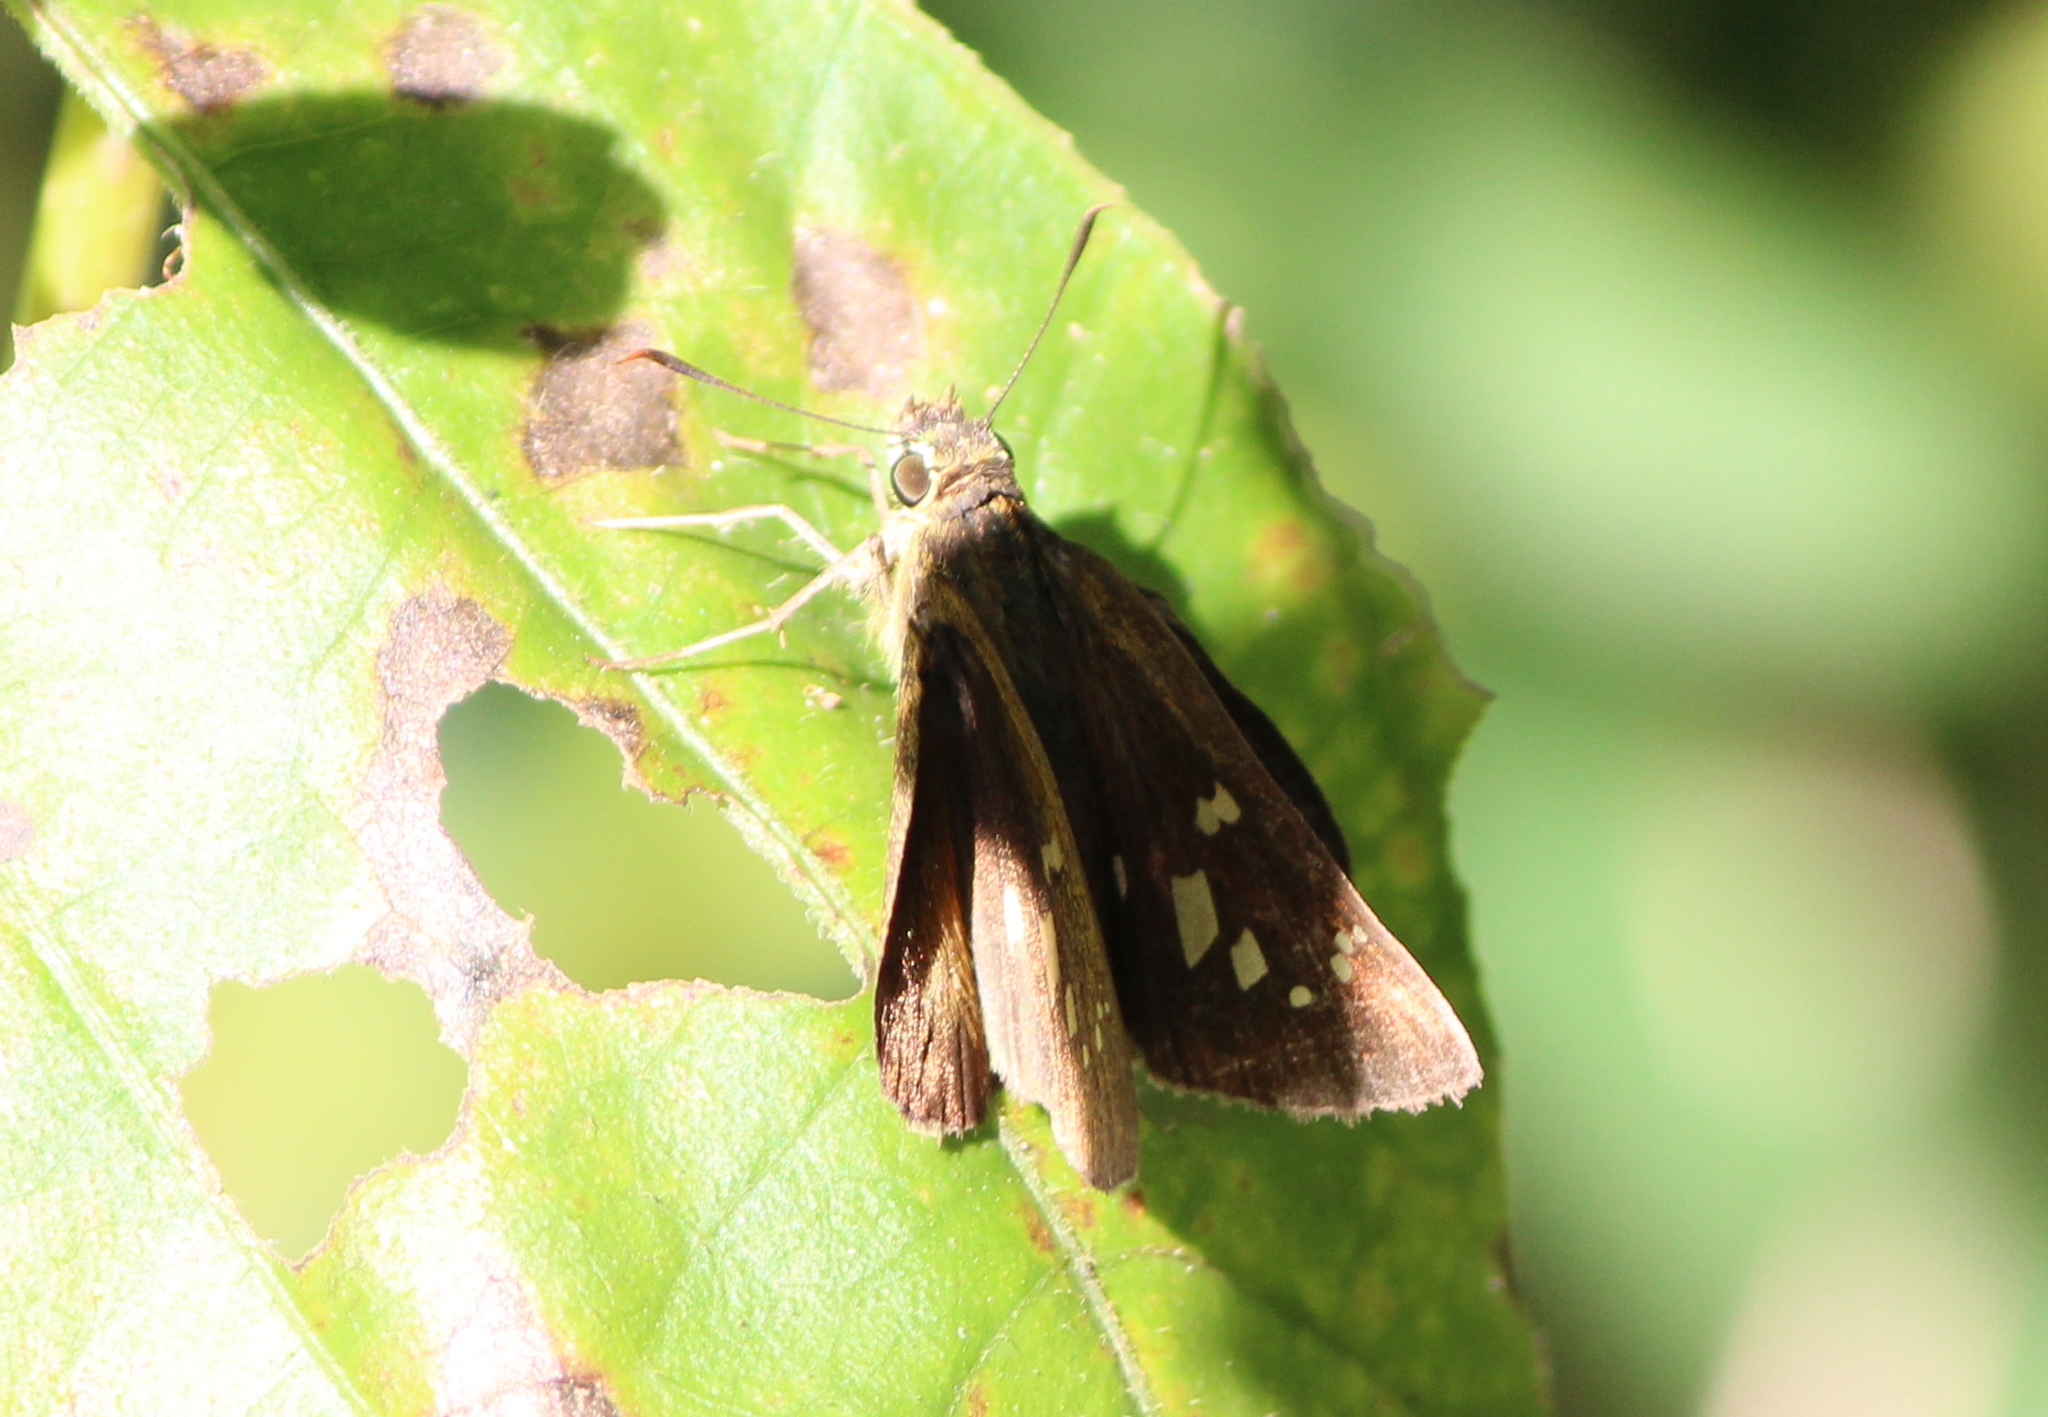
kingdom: Animalia
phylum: Arthropoda
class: Insecta
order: Lepidoptera
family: Hesperiidae
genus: Polytremis
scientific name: Polytremis lubricans
